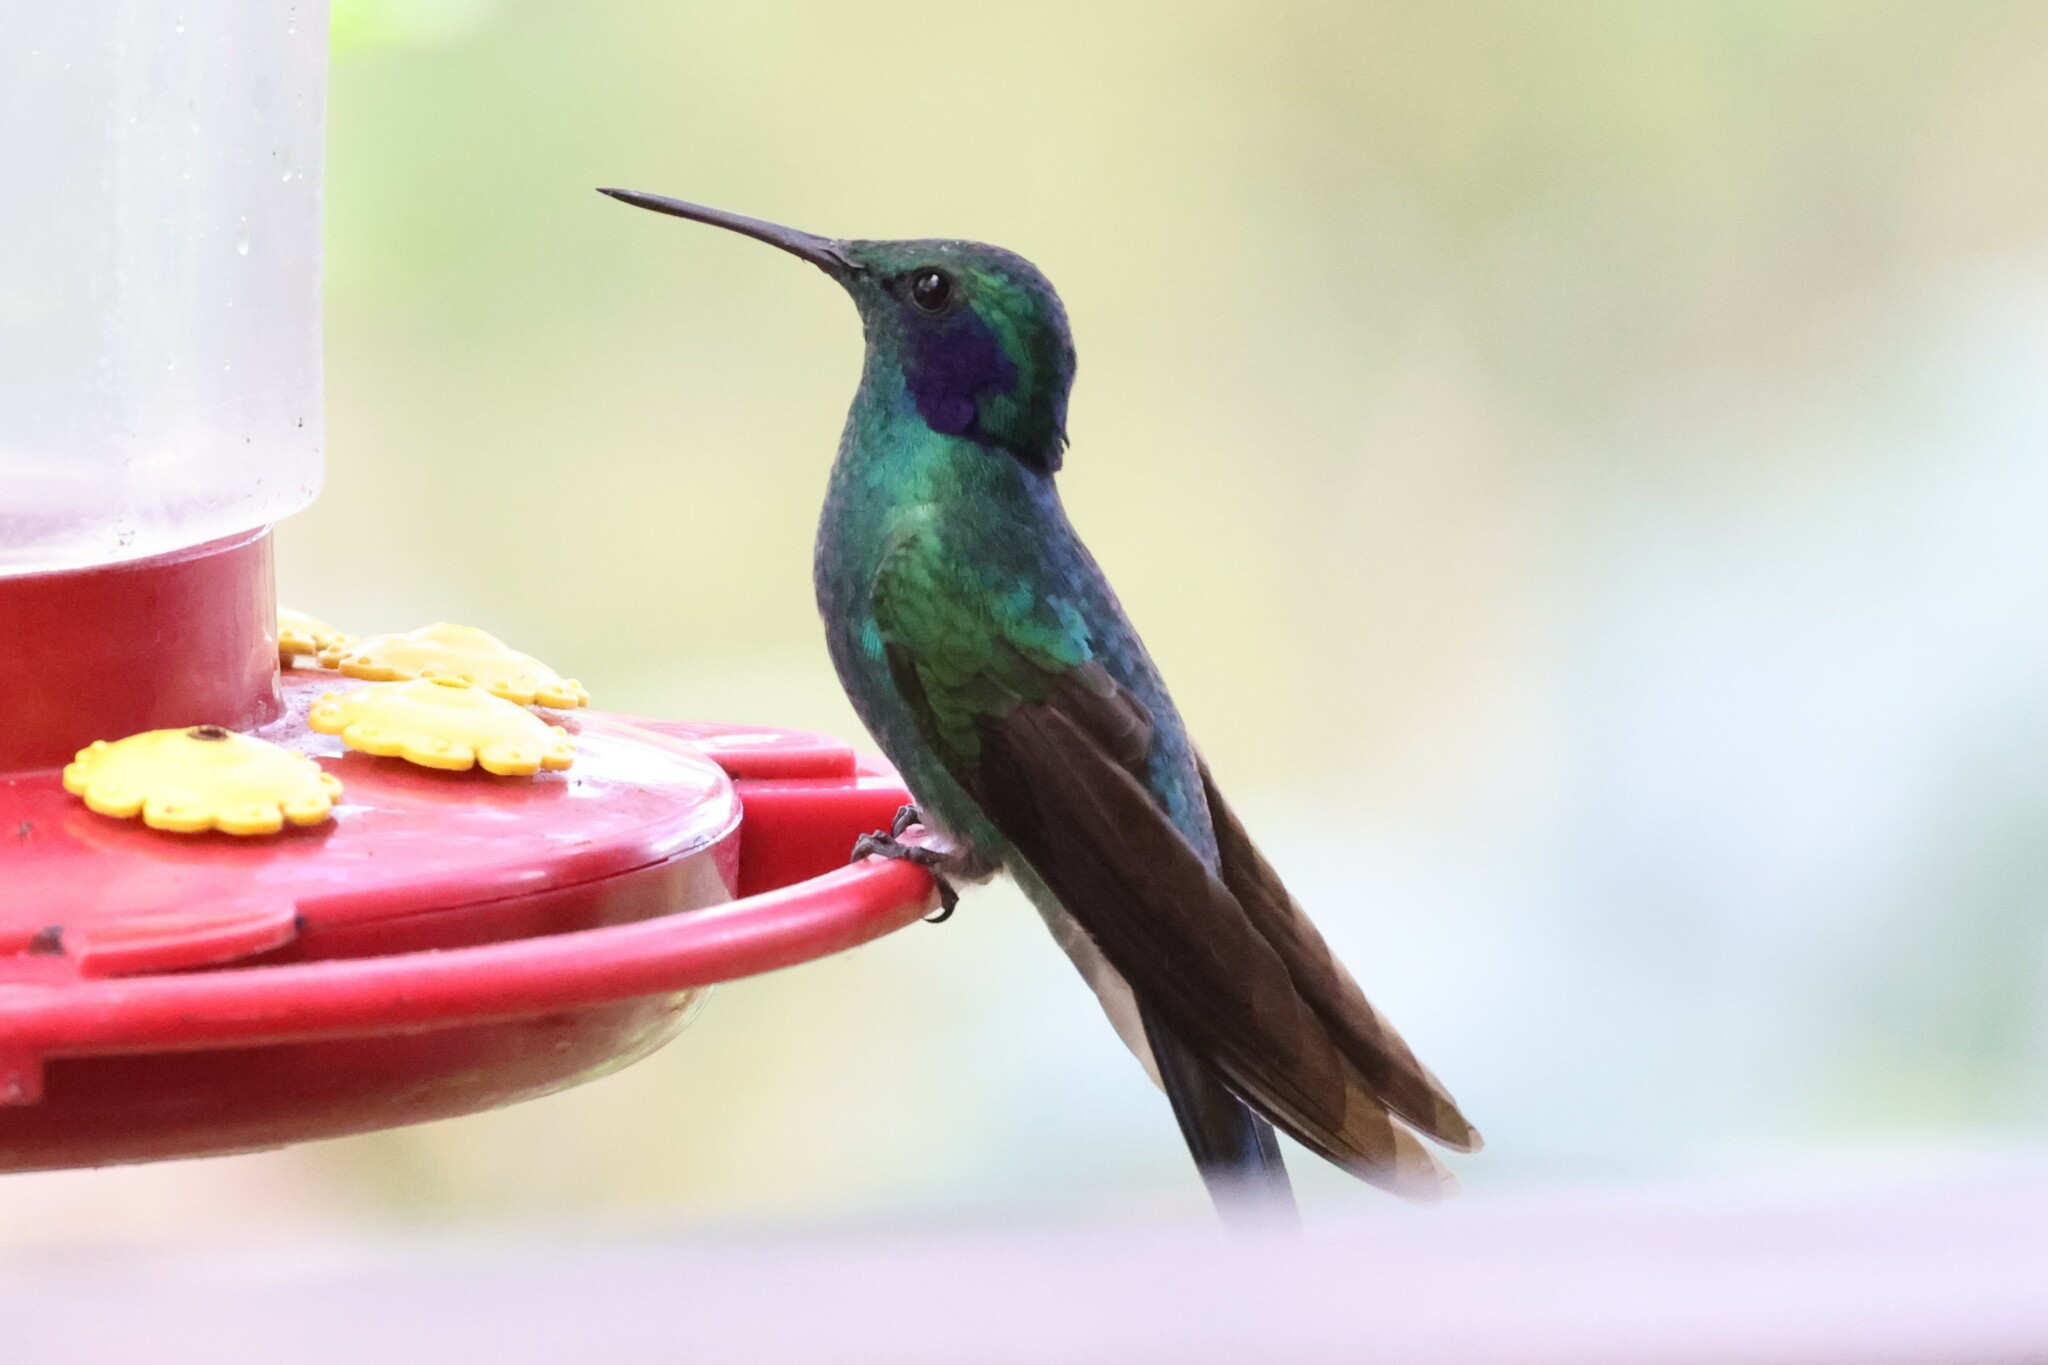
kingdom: Animalia
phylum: Chordata
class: Aves
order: Apodiformes
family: Trochilidae
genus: Colibri
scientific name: Colibri cyanotus
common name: Lesser violetear
